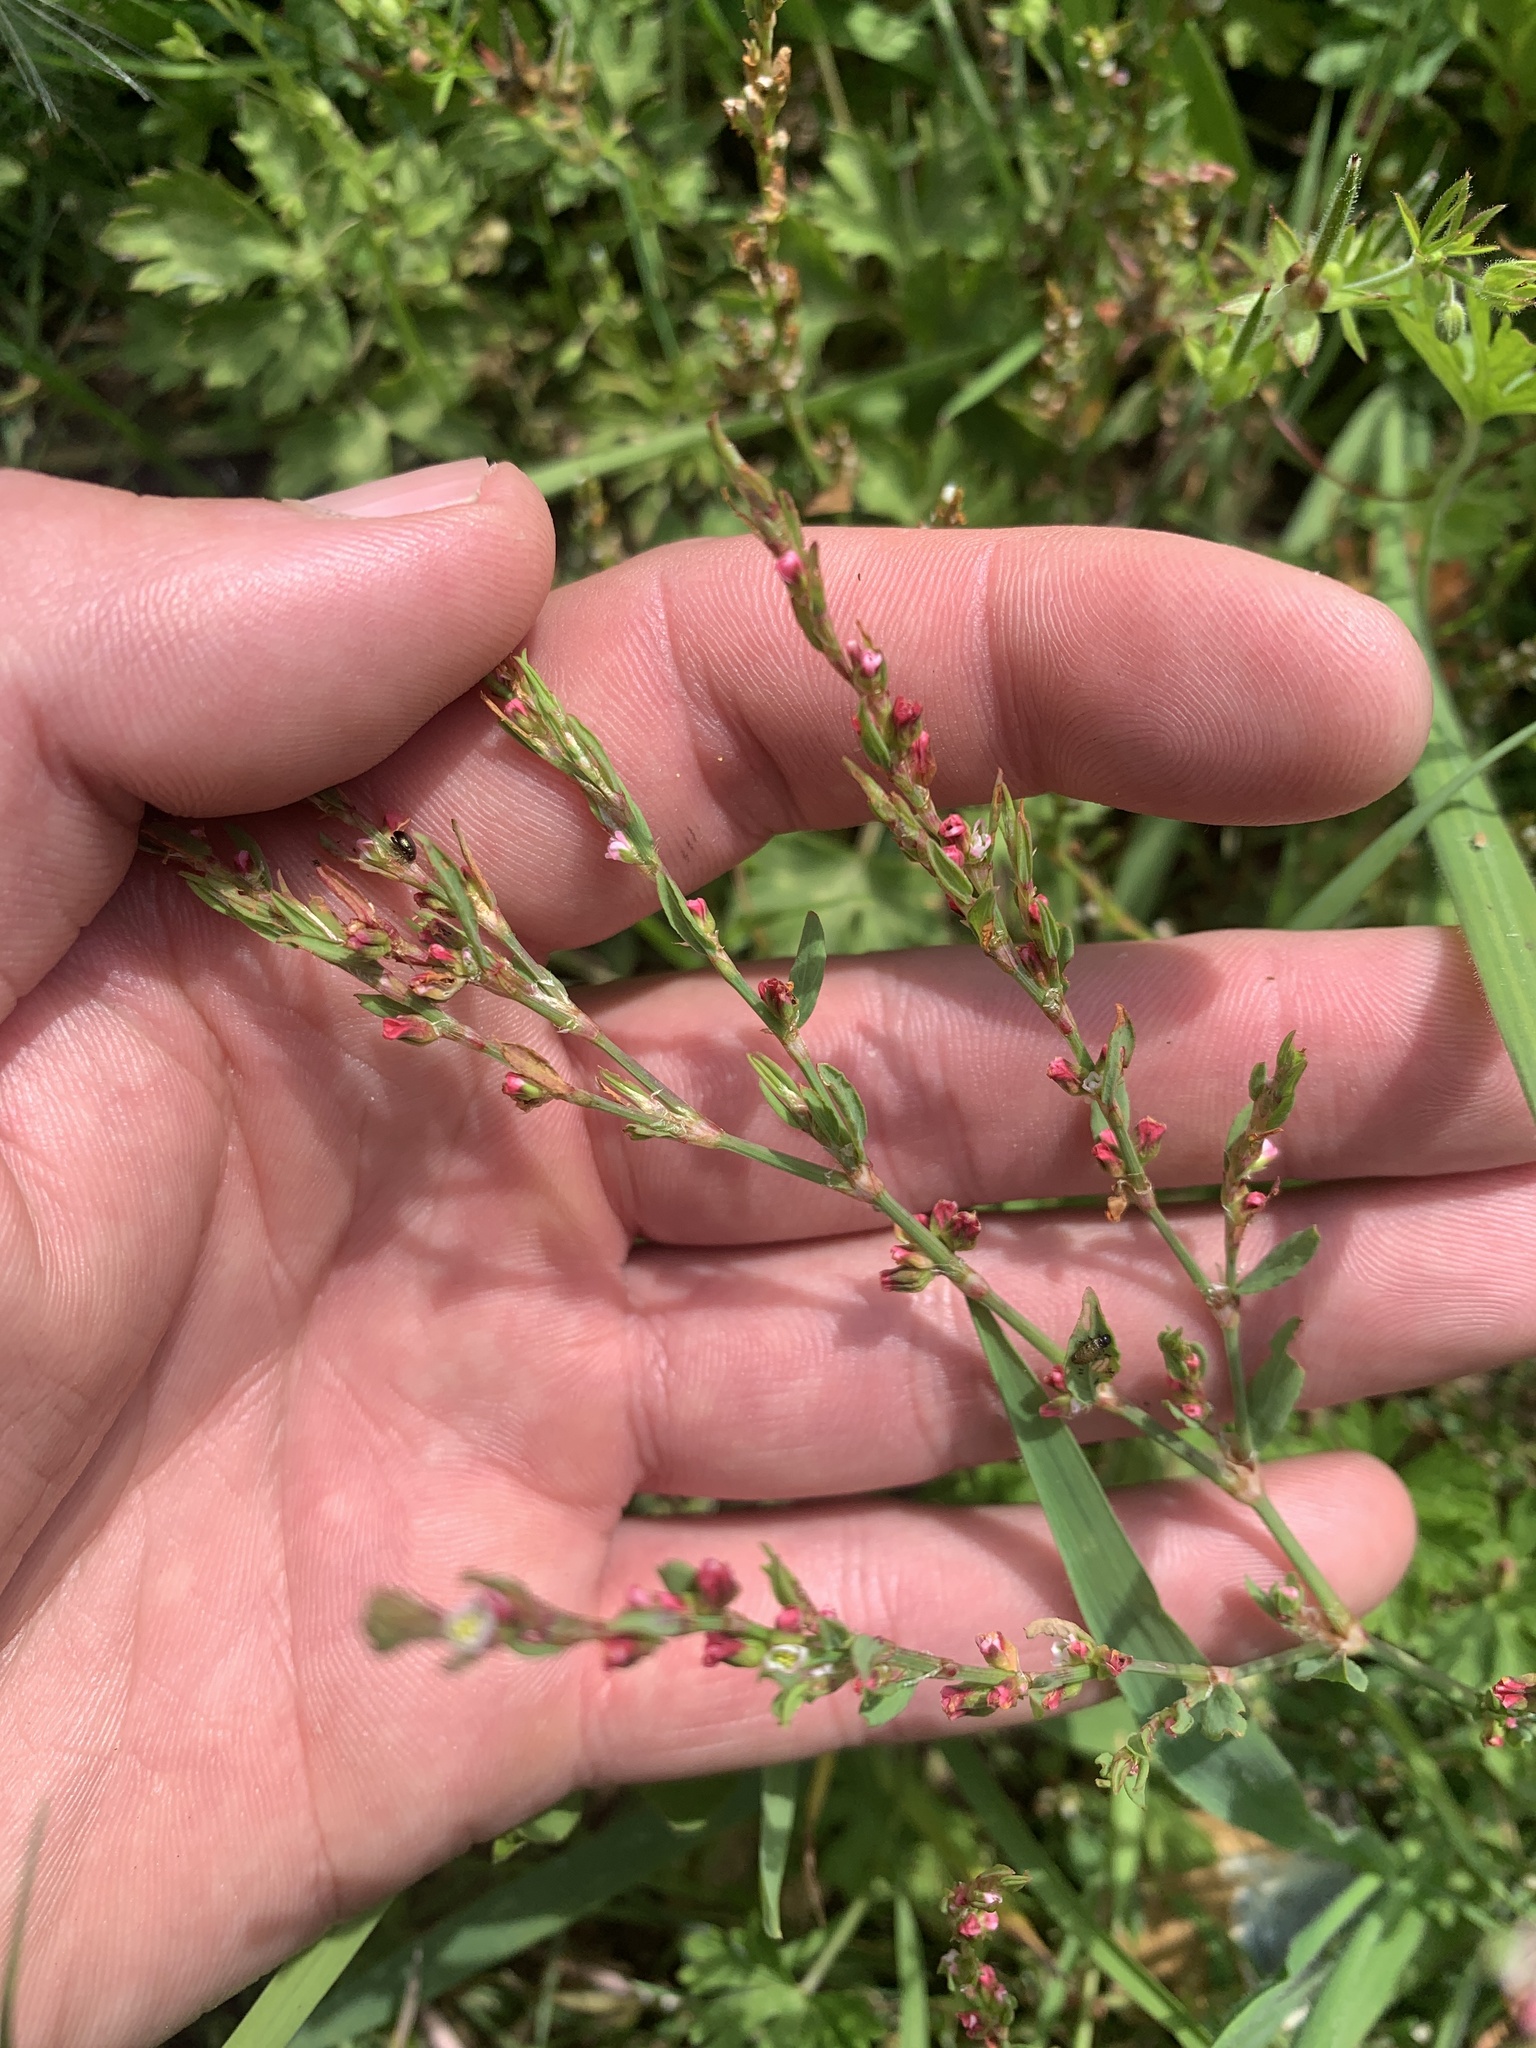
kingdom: Plantae
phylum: Tracheophyta
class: Magnoliopsida
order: Caryophyllales
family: Polygonaceae
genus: Polygonum
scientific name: Polygonum aviculare
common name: Prostrate knotweed
